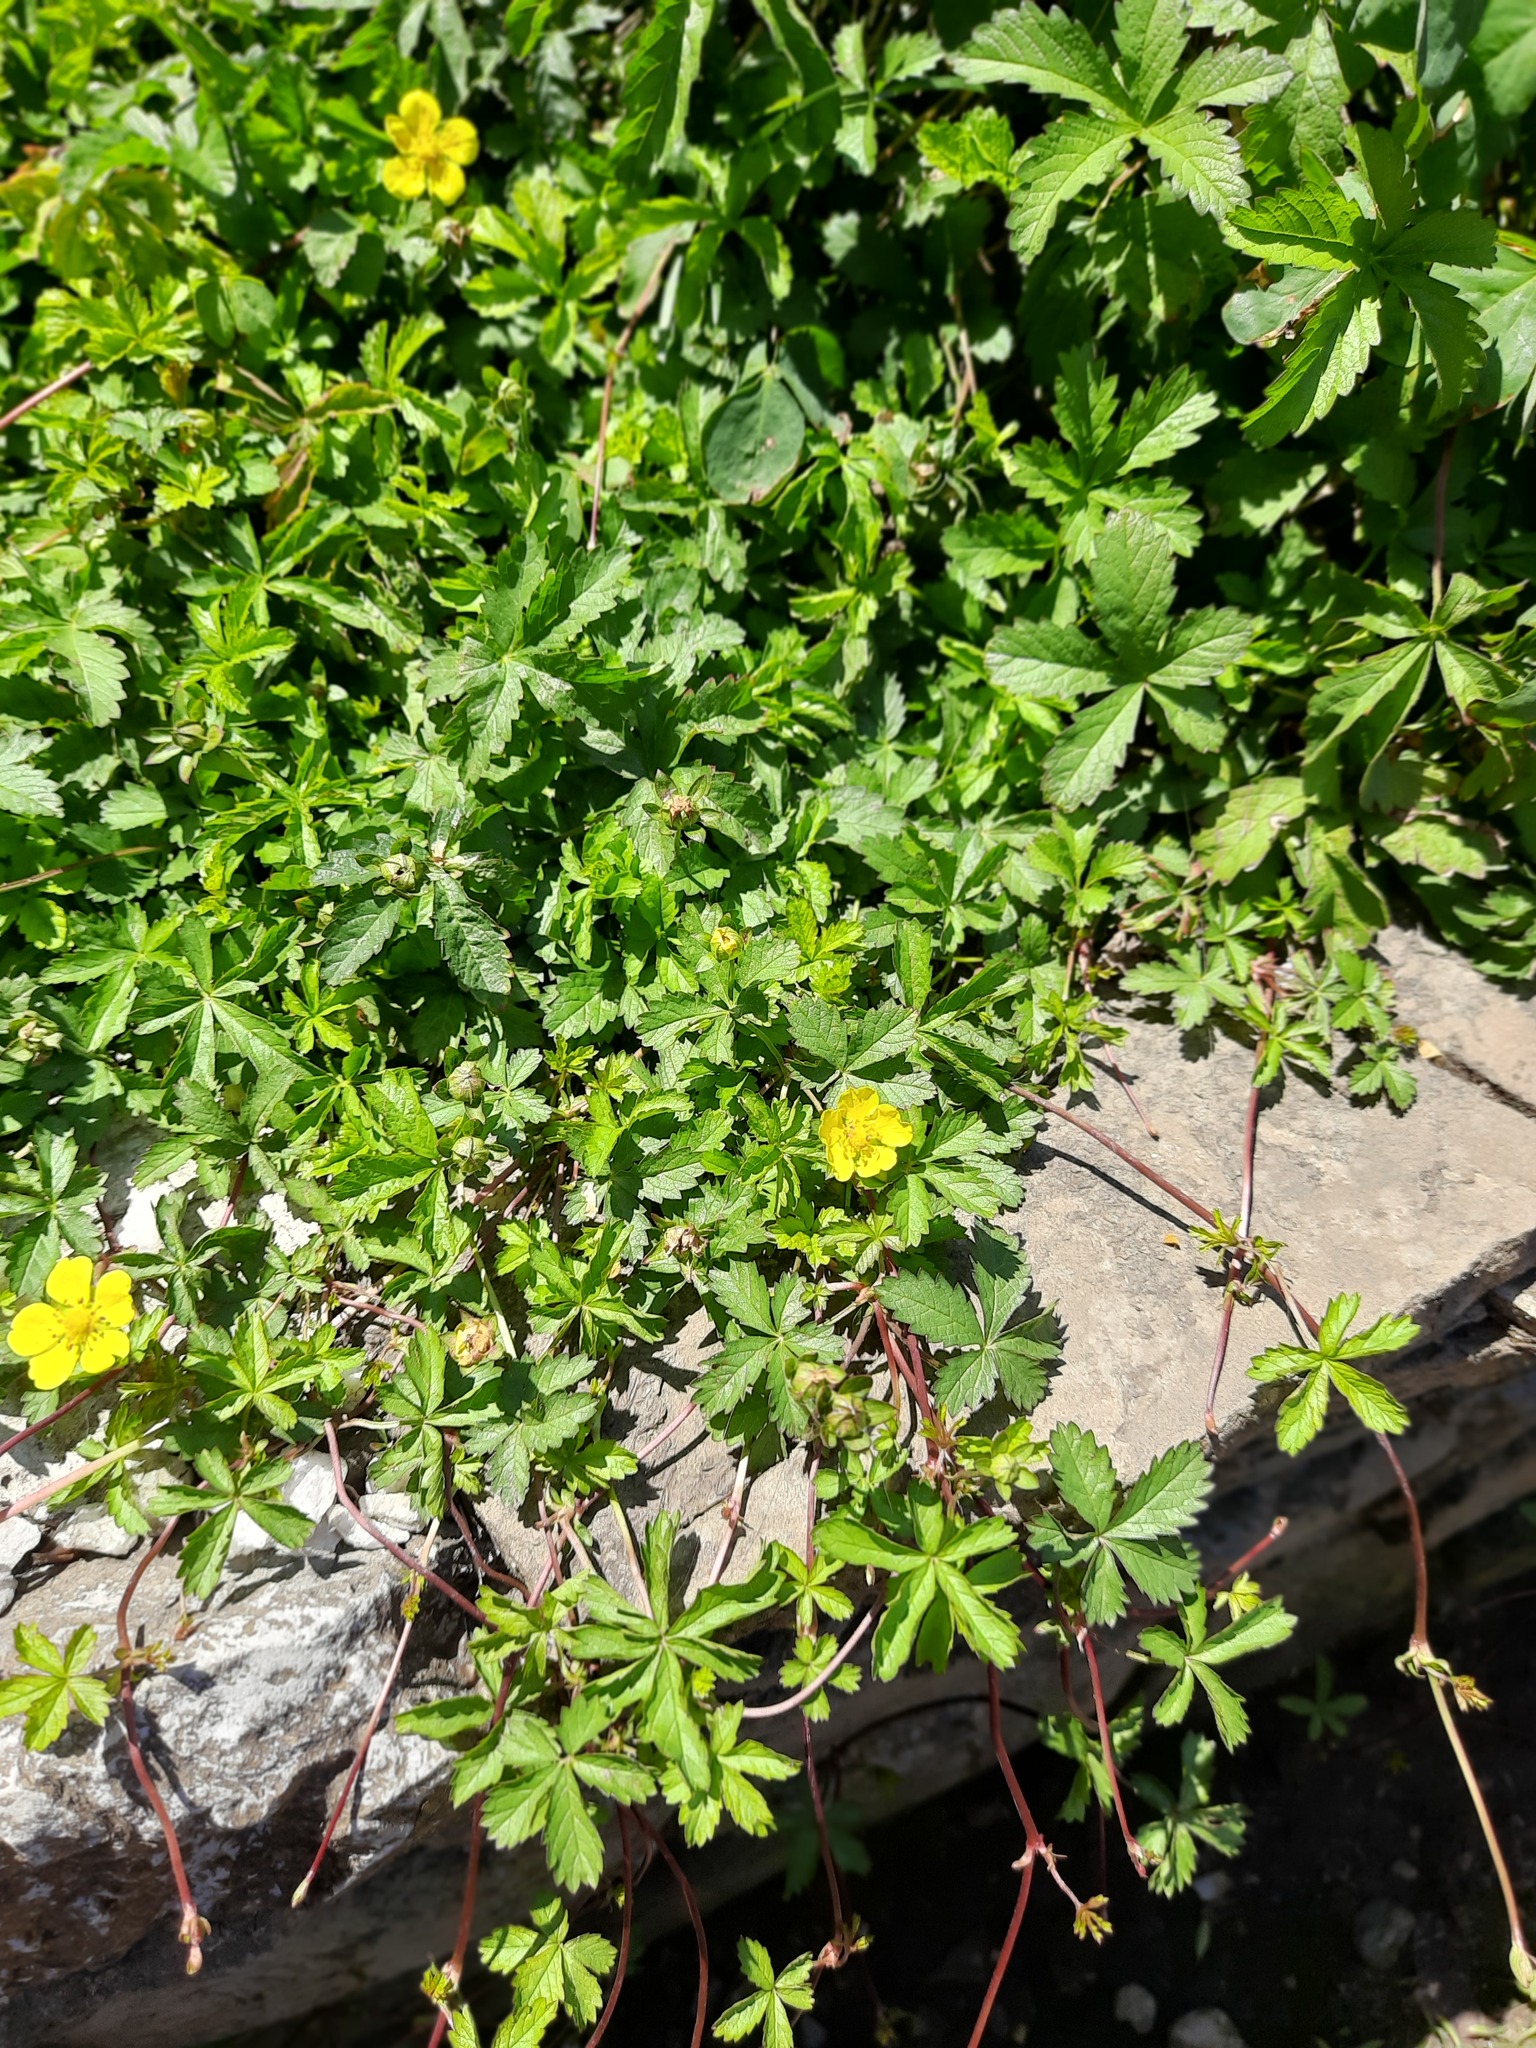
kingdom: Plantae
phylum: Tracheophyta
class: Magnoliopsida
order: Rosales
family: Rosaceae
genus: Potentilla
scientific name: Potentilla reptans
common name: Creeping cinquefoil
